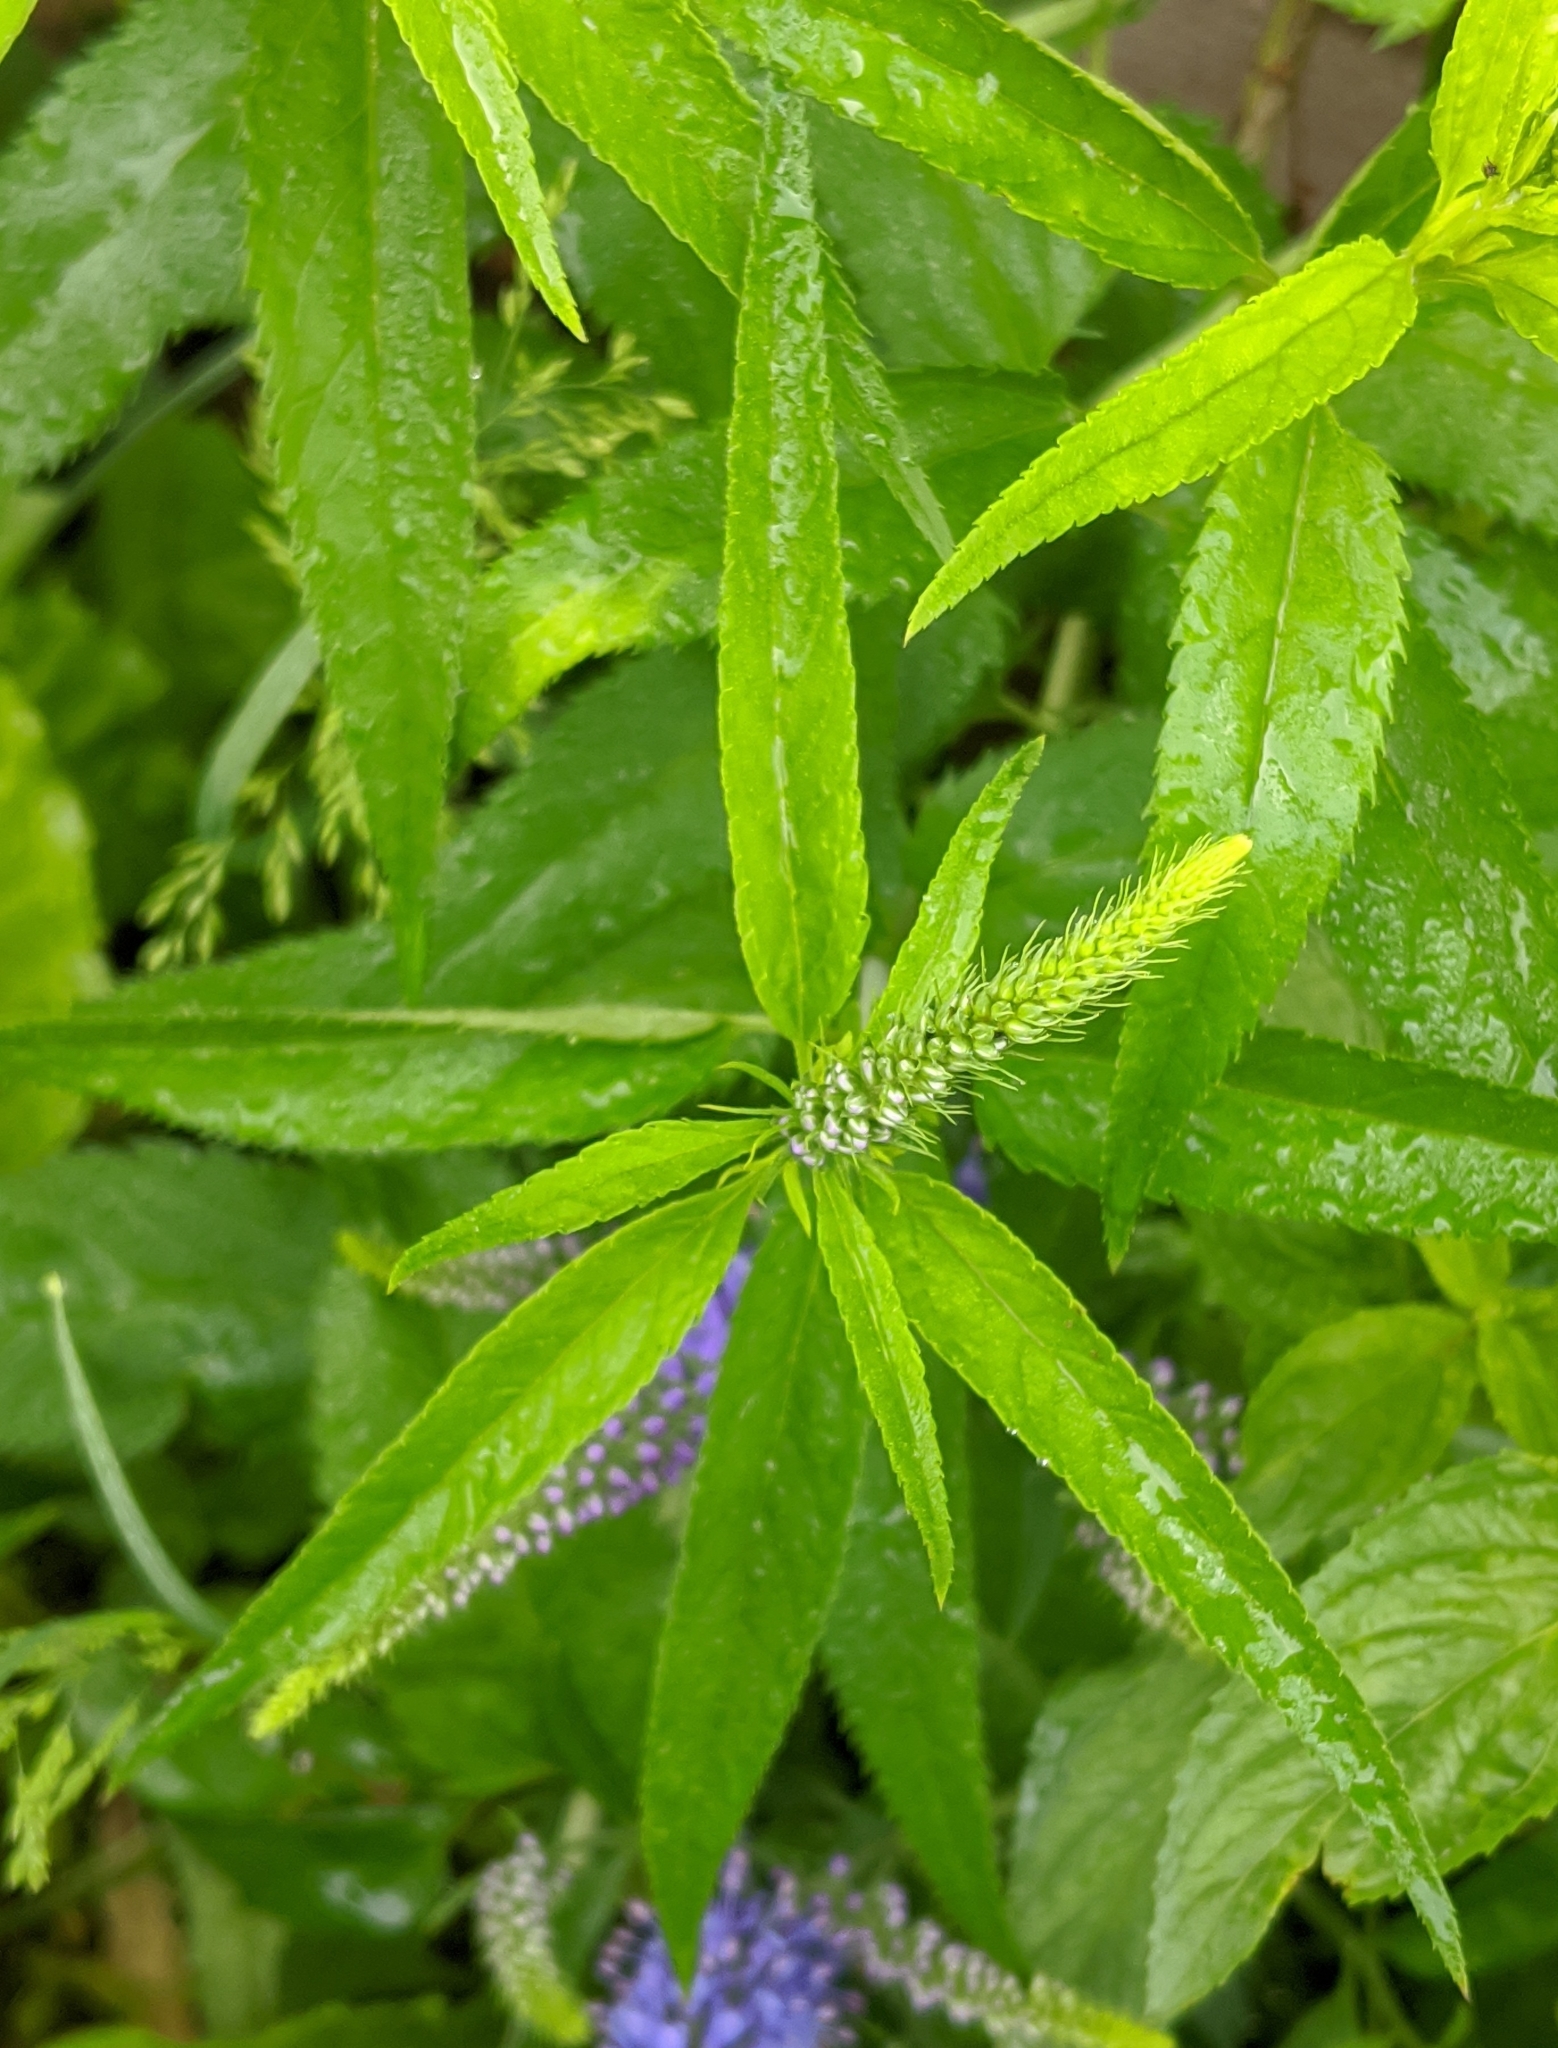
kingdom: Plantae
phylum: Tracheophyta
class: Magnoliopsida
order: Lamiales
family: Plantaginaceae
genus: Veronica
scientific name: Veronica longifolia
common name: Garden speedwell
